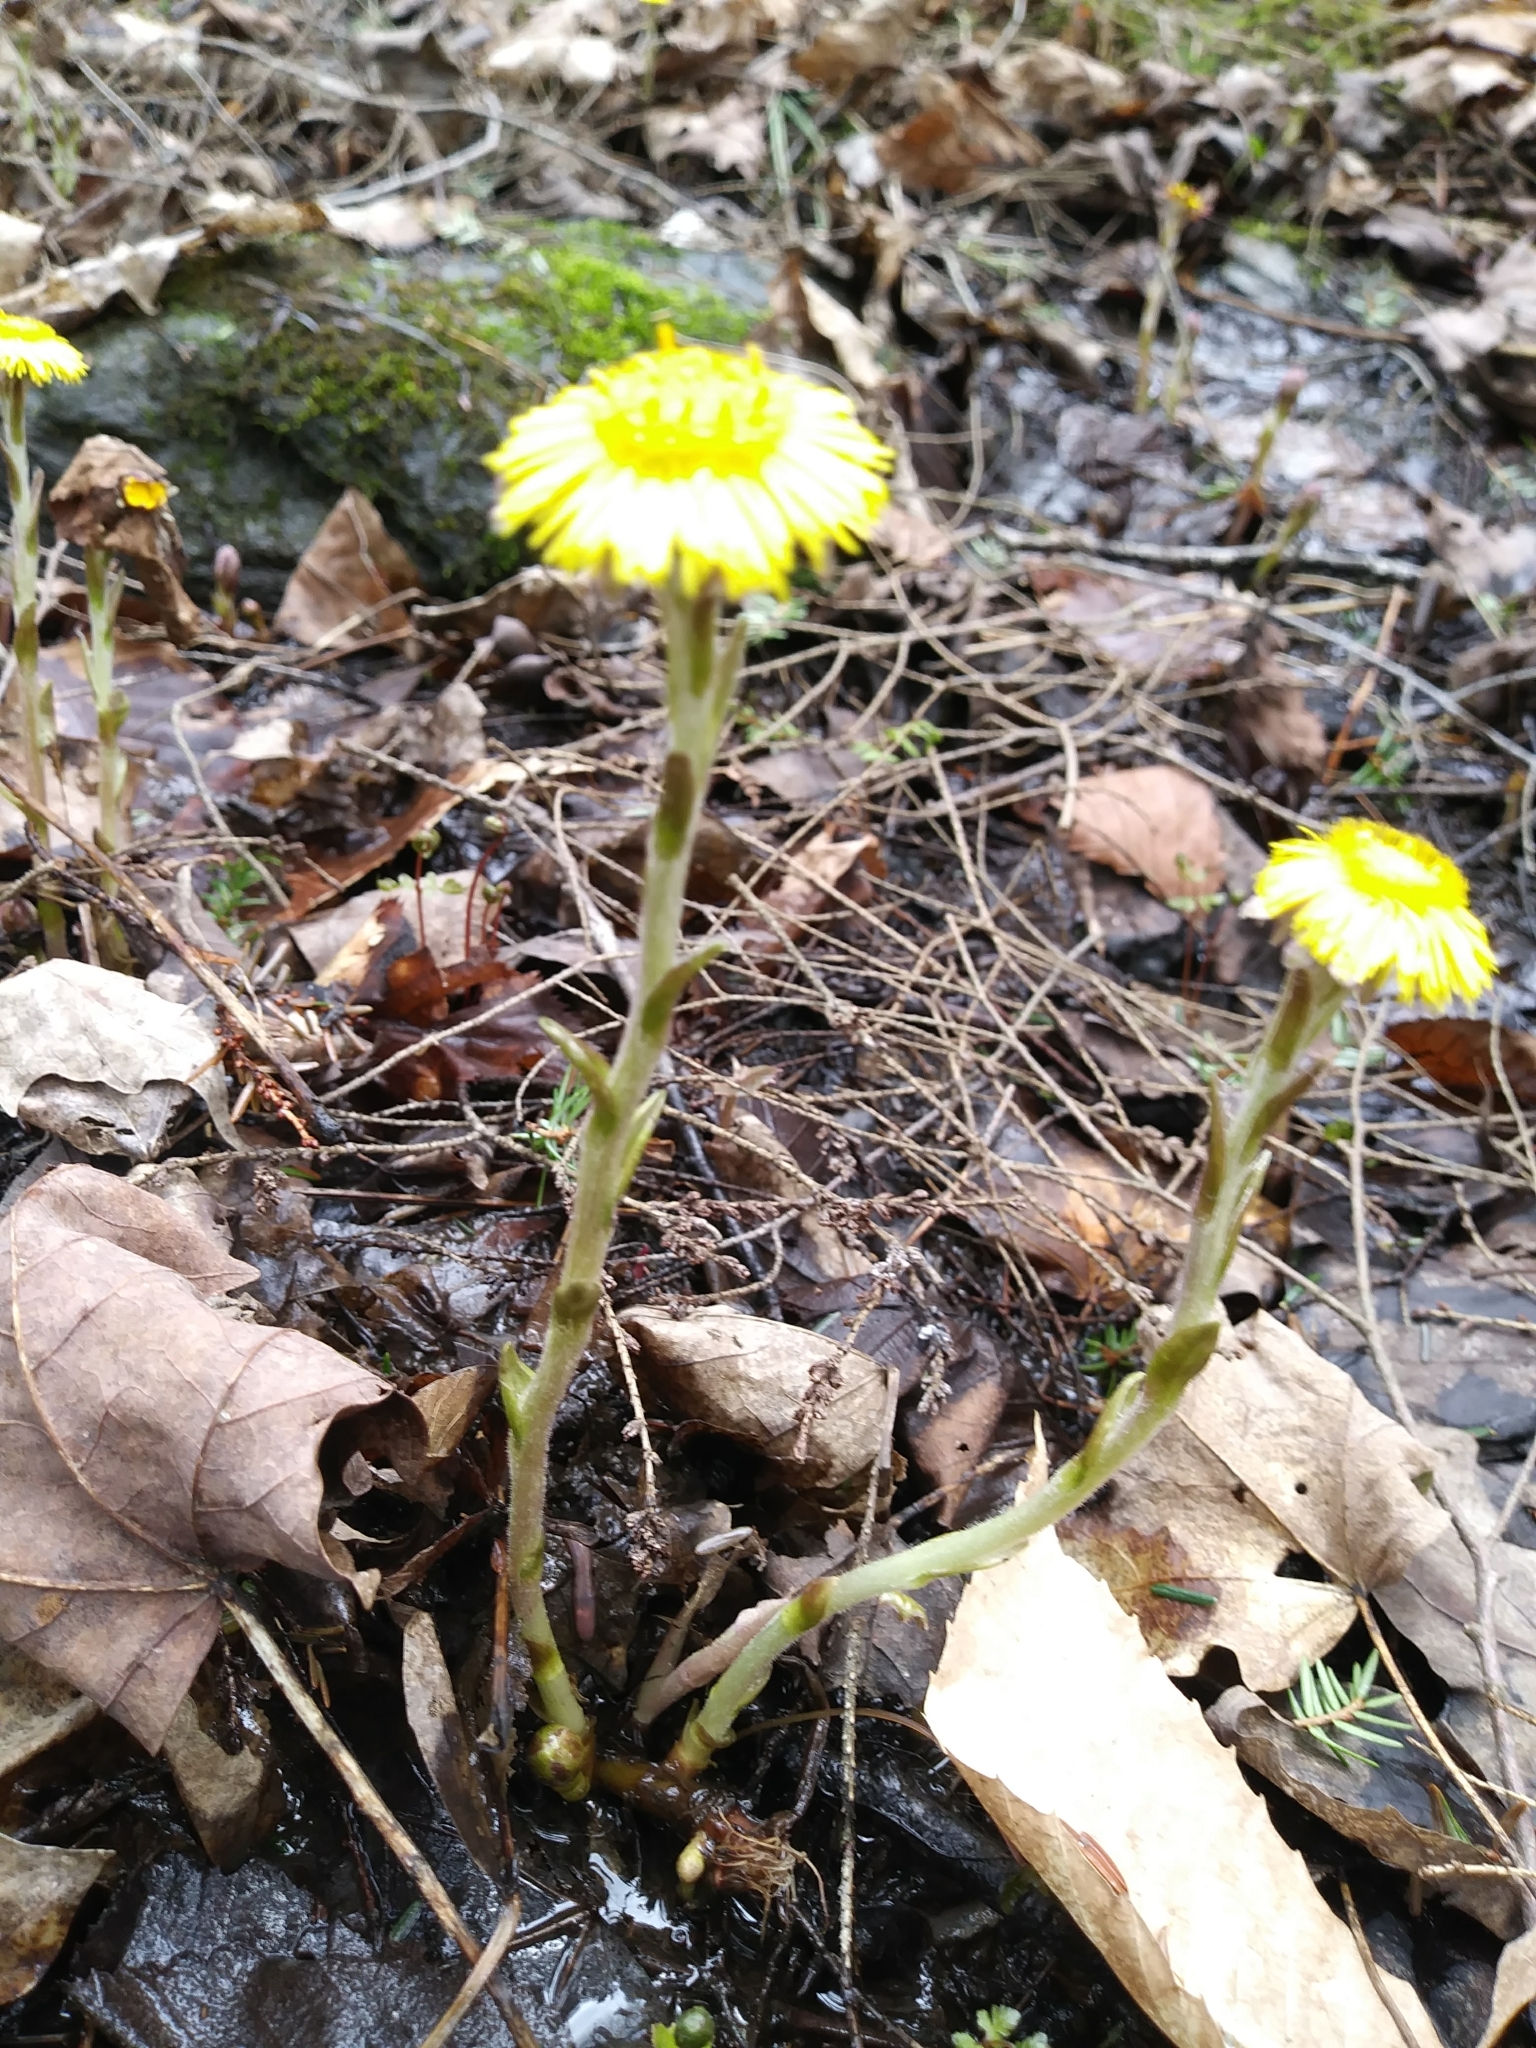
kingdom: Plantae
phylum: Tracheophyta
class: Magnoliopsida
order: Asterales
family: Asteraceae
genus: Tussilago
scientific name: Tussilago farfara
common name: Coltsfoot
